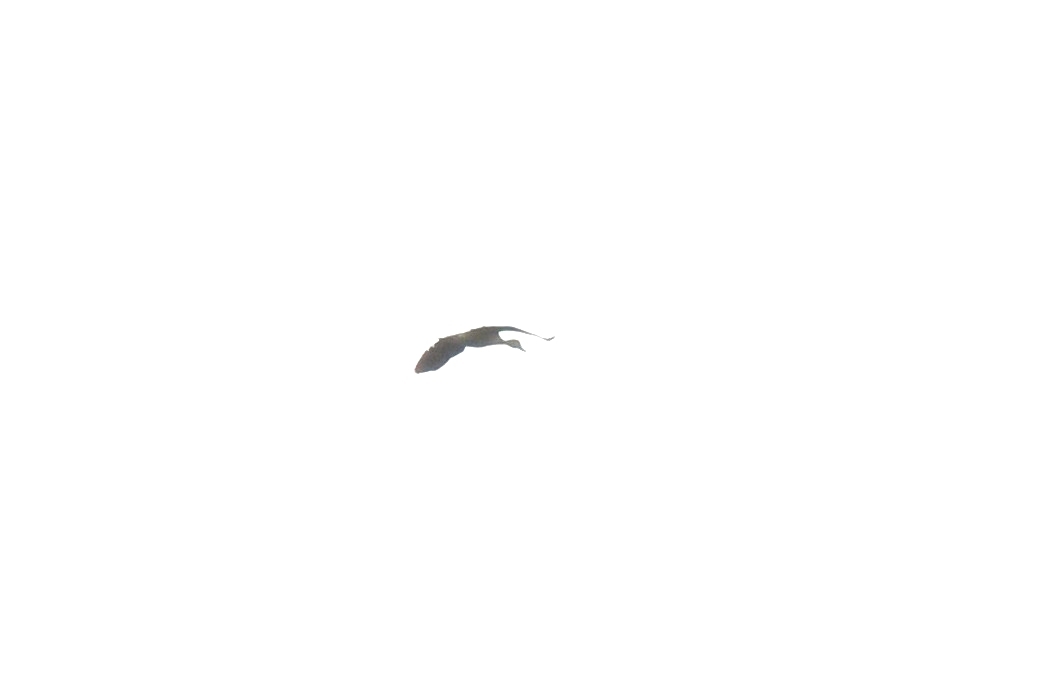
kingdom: Animalia
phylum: Chordata
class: Aves
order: Anseriformes
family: Anatidae
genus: Dendrocygna
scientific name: Dendrocygna javanica
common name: Lesser whistling-duck
